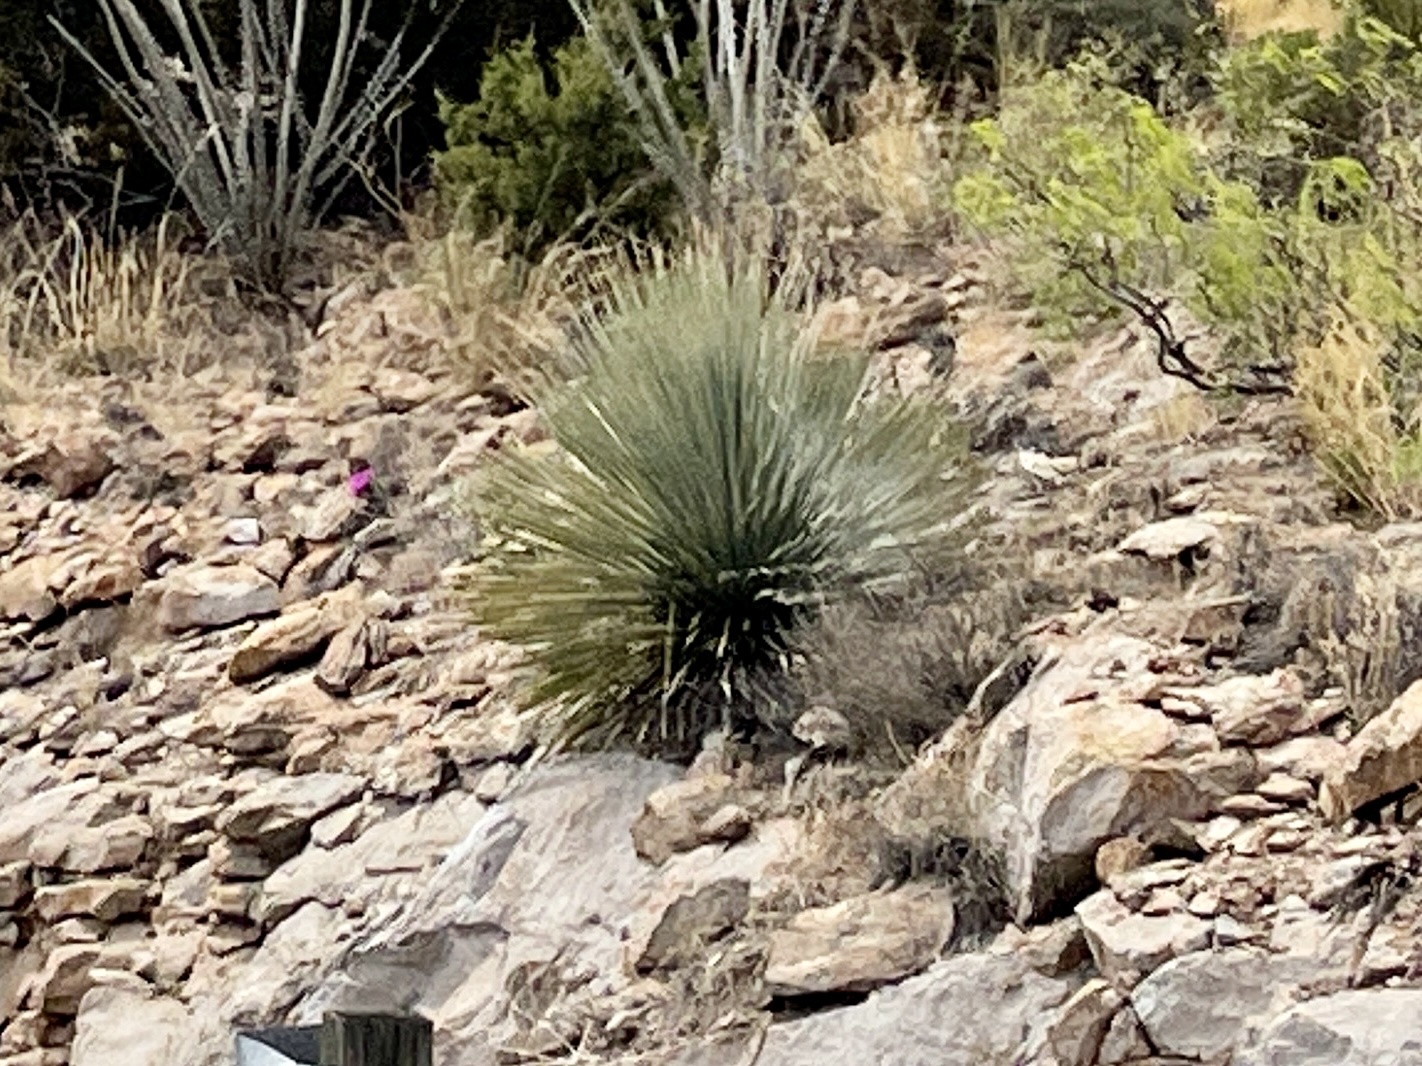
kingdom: Plantae
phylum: Tracheophyta
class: Liliopsida
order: Asparagales
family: Asparagaceae
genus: Dasylirion
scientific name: Dasylirion wheeleri
